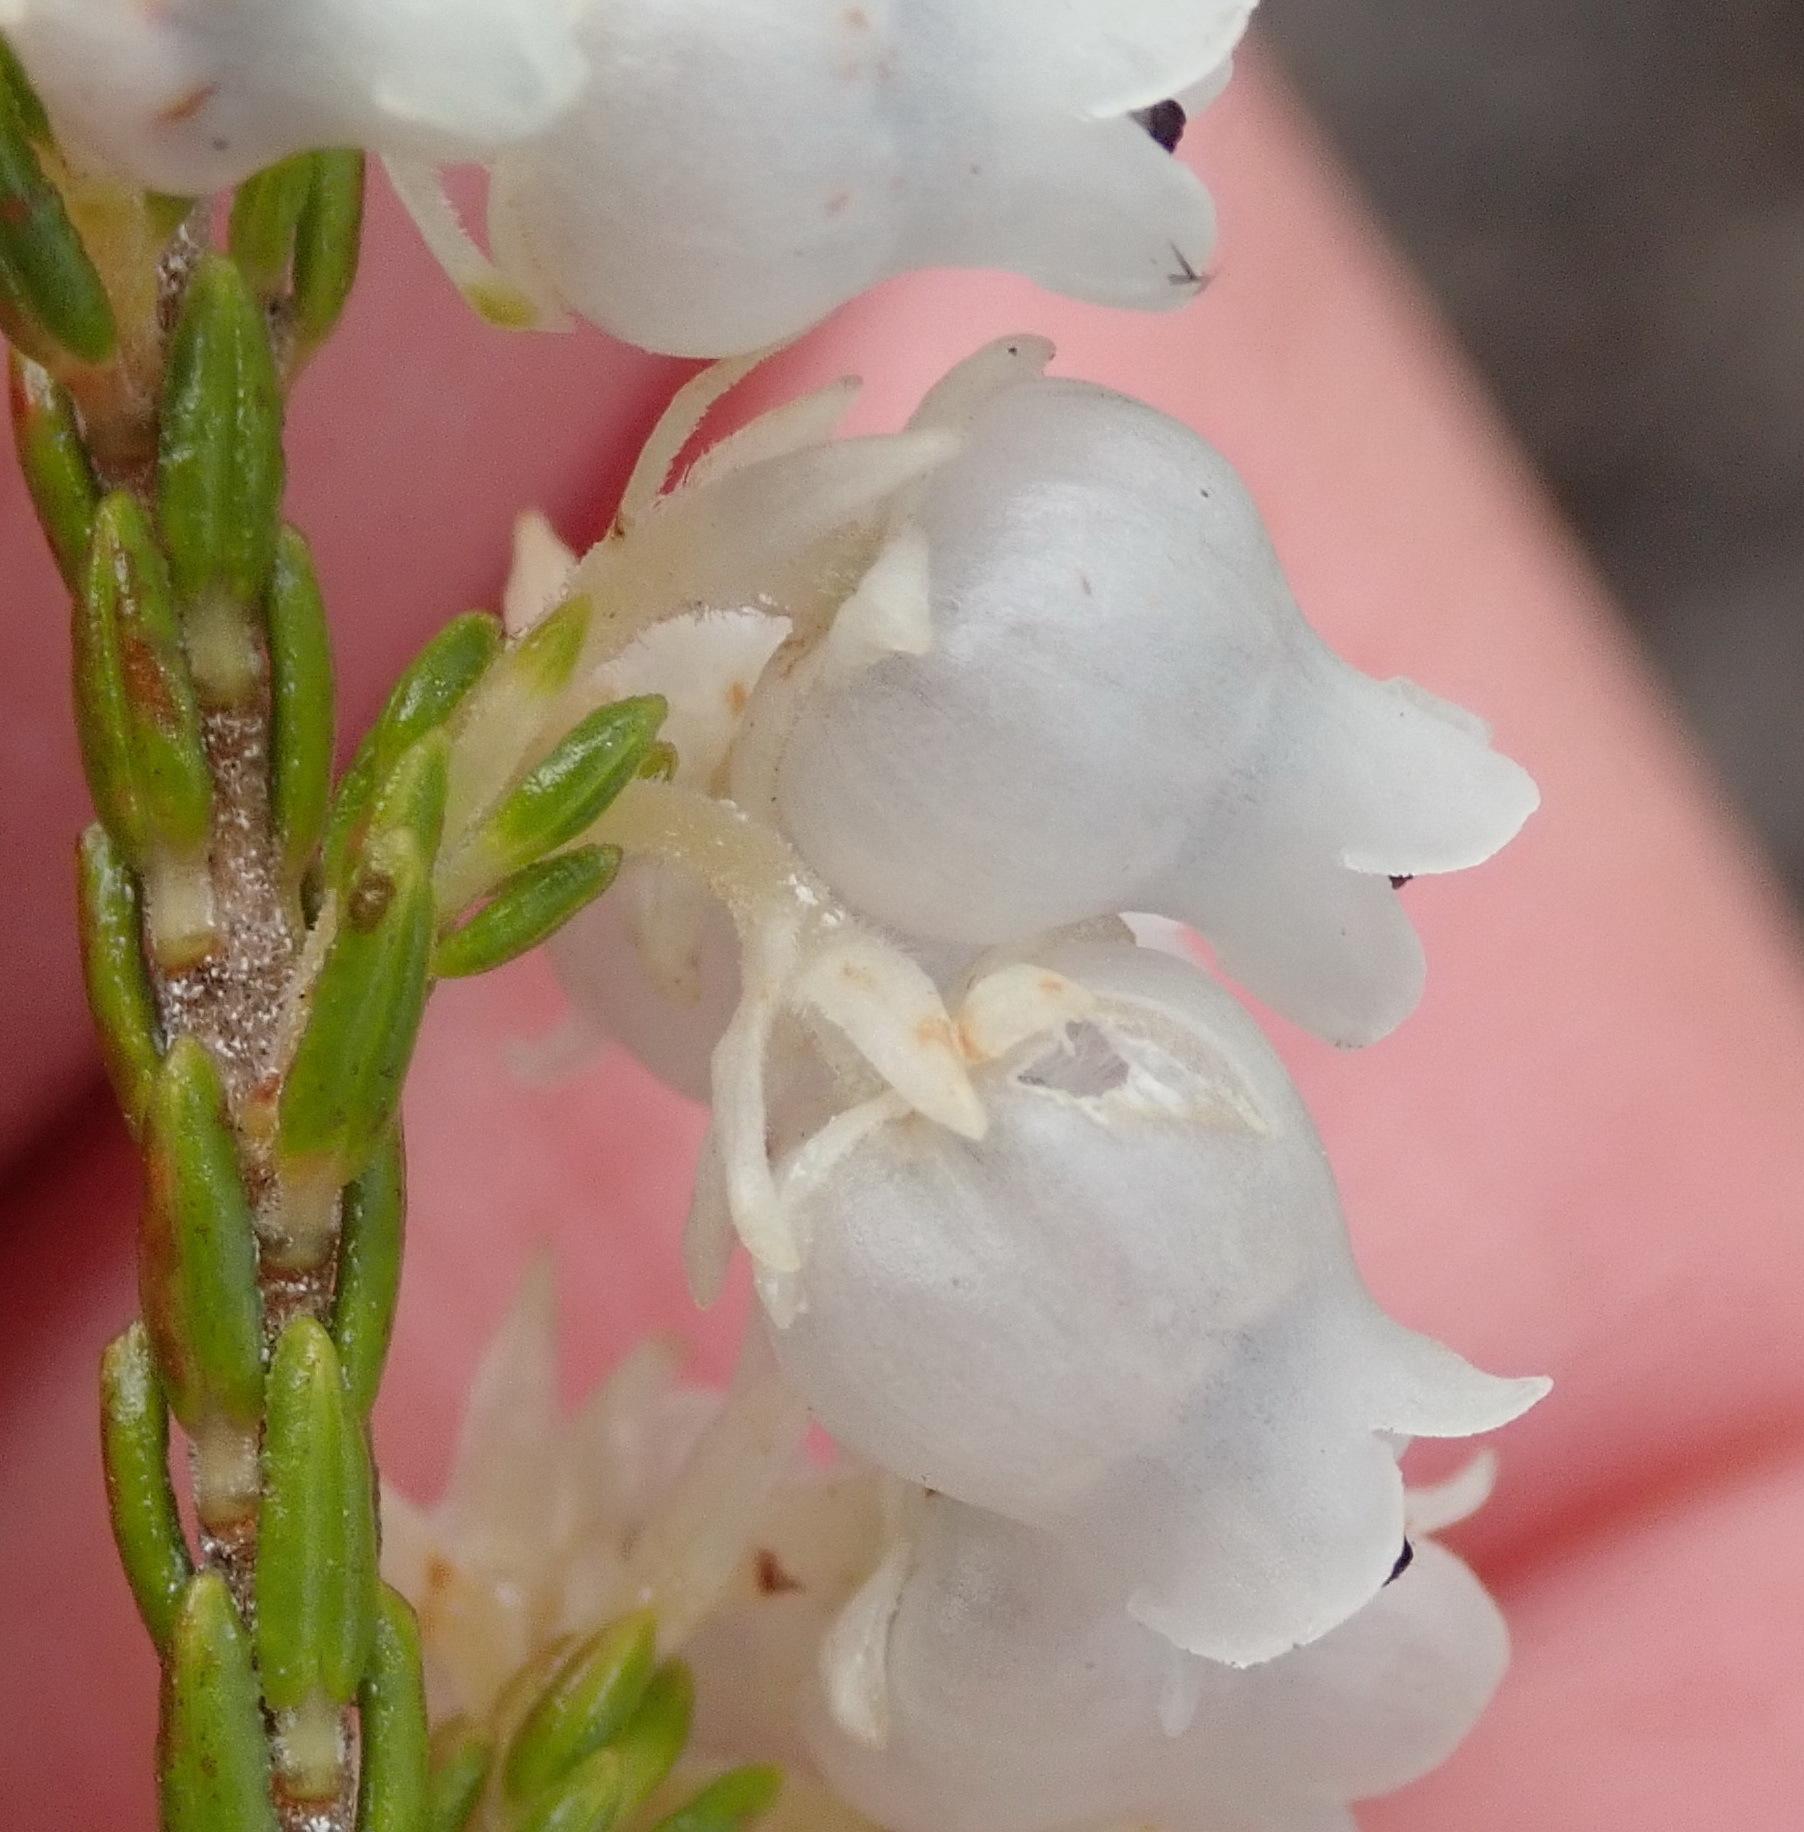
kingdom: Plantae
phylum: Tracheophyta
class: Magnoliopsida
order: Ericales
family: Ericaceae
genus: Erica
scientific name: Erica glomiflora
